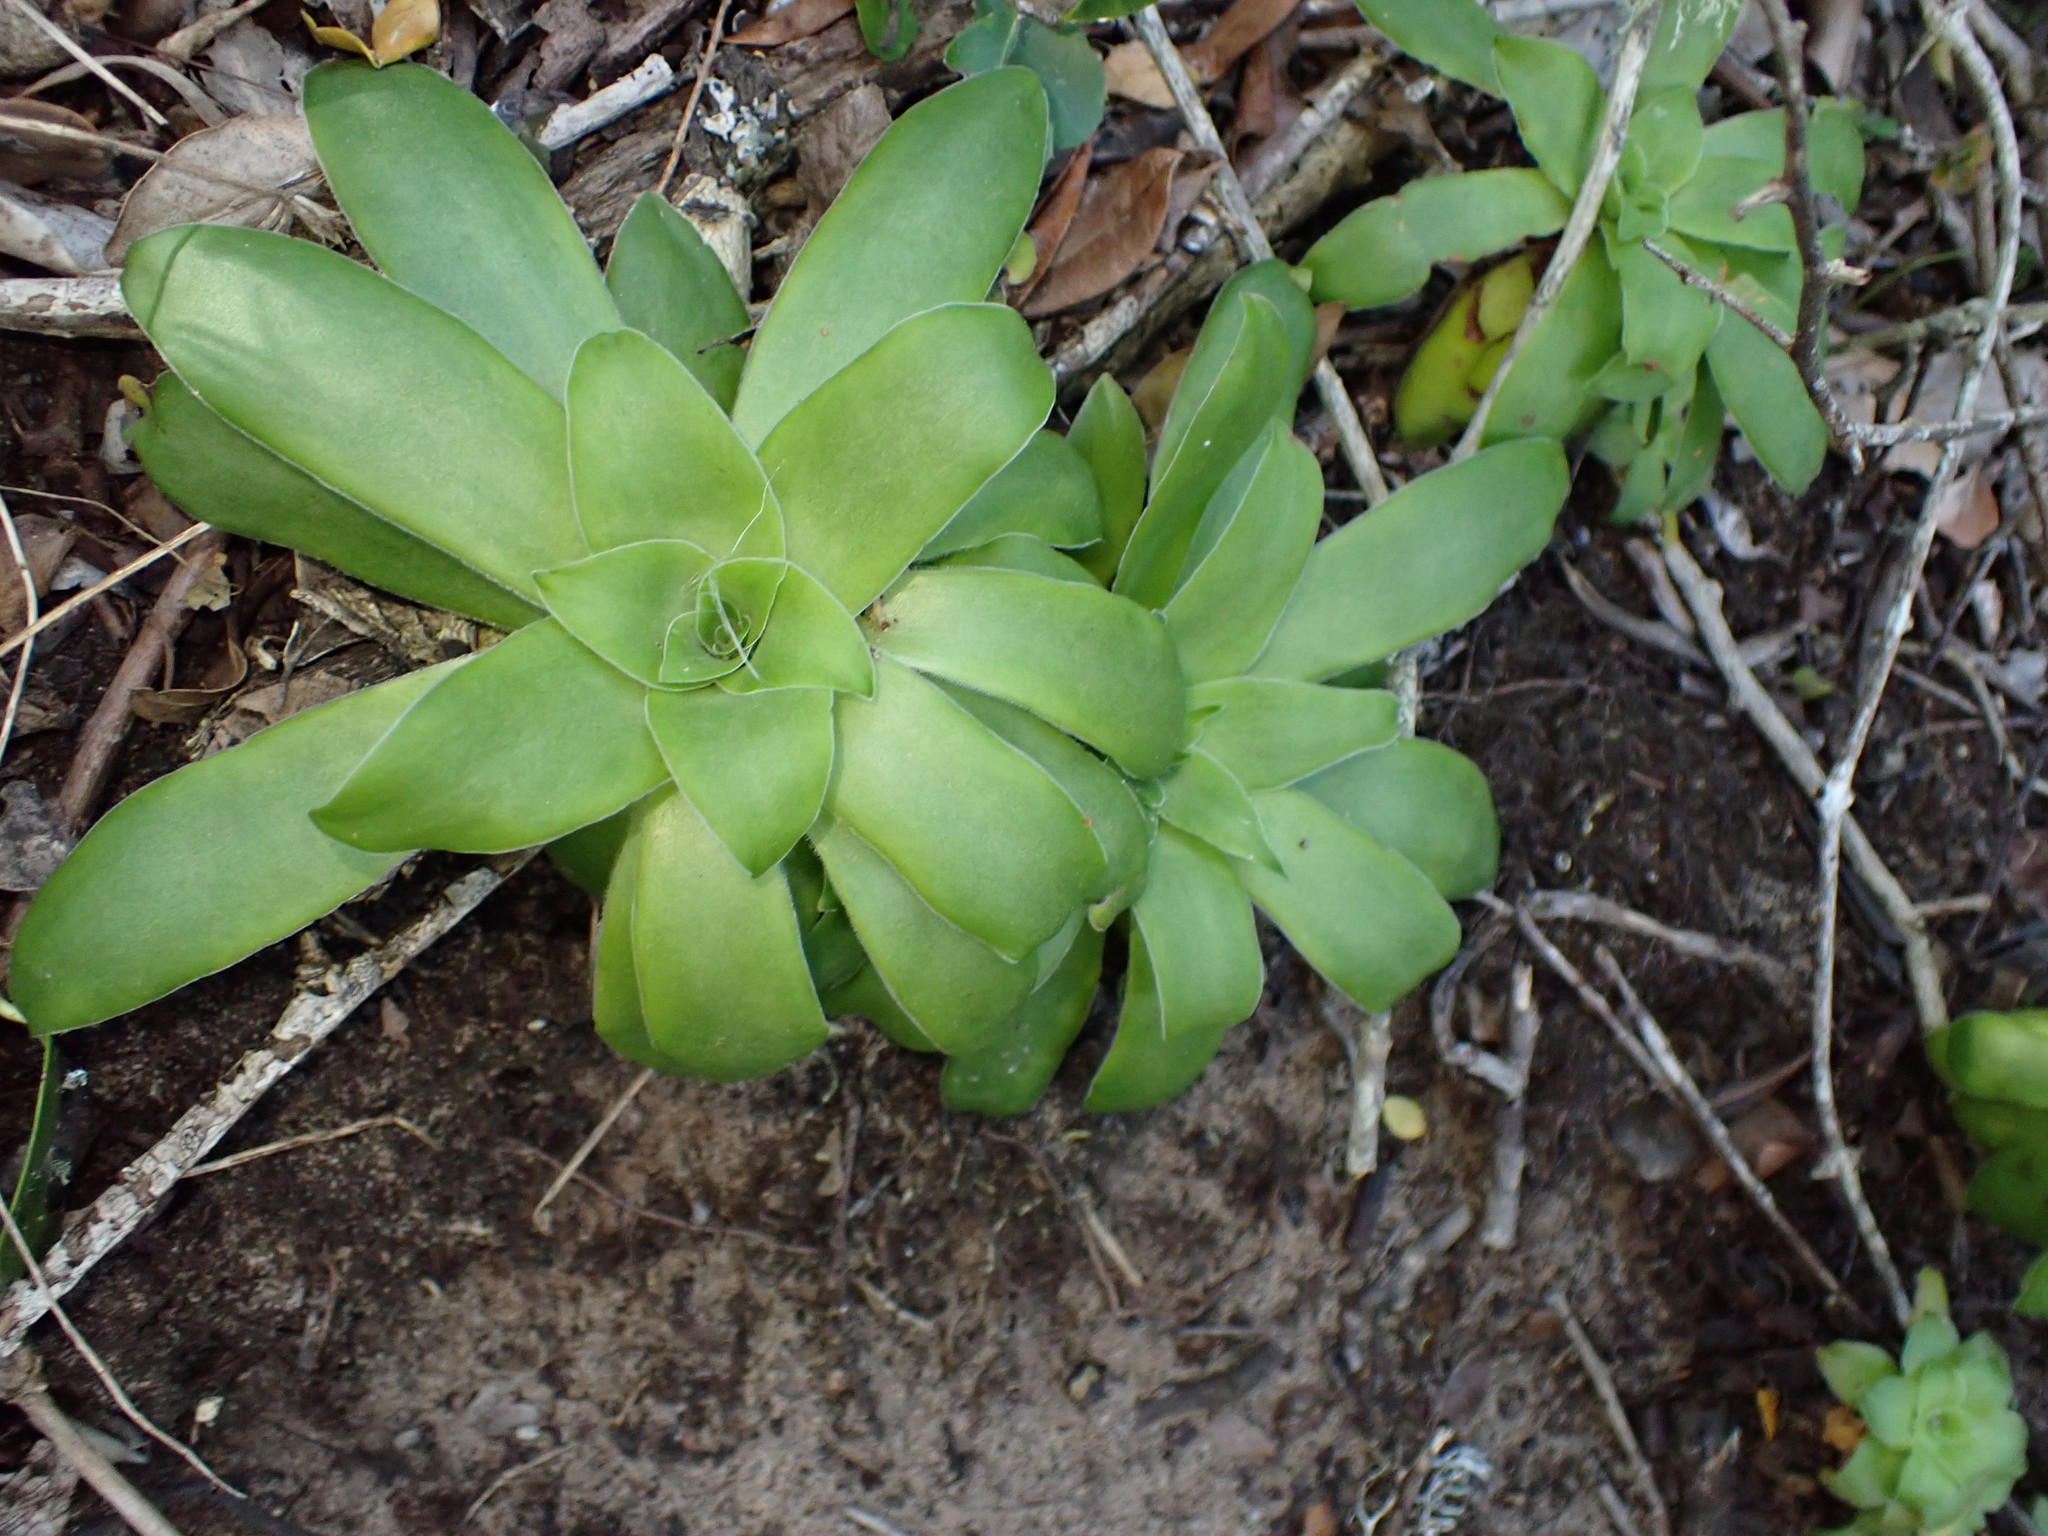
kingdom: Plantae
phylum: Tracheophyta
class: Magnoliopsida
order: Saxifragales
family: Crassulaceae
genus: Crassula
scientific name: Crassula orbicularis
